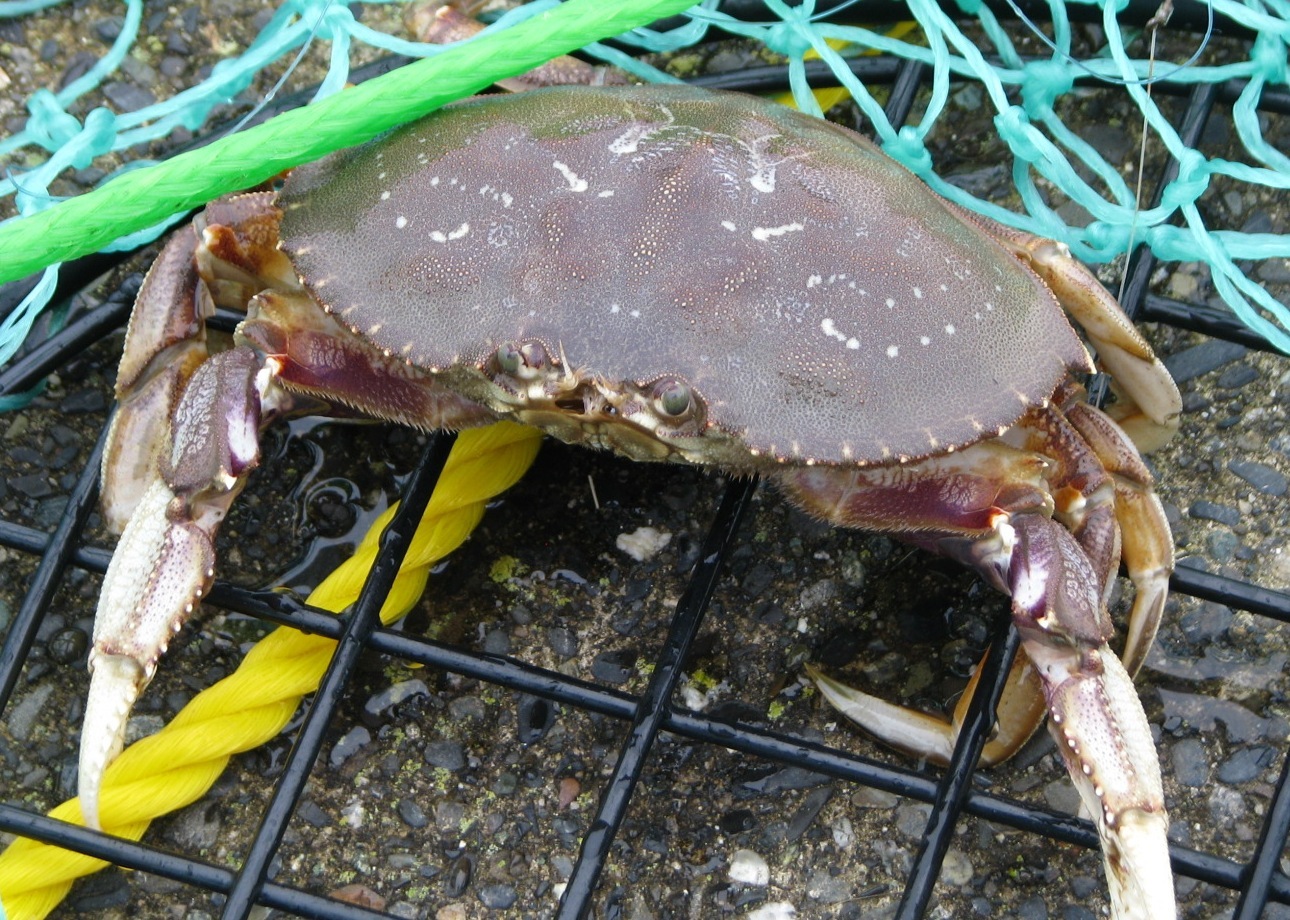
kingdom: Animalia
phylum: Arthropoda
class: Malacostraca
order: Decapoda
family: Cancridae
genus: Metacarcinus
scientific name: Metacarcinus magister
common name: Californian crab
